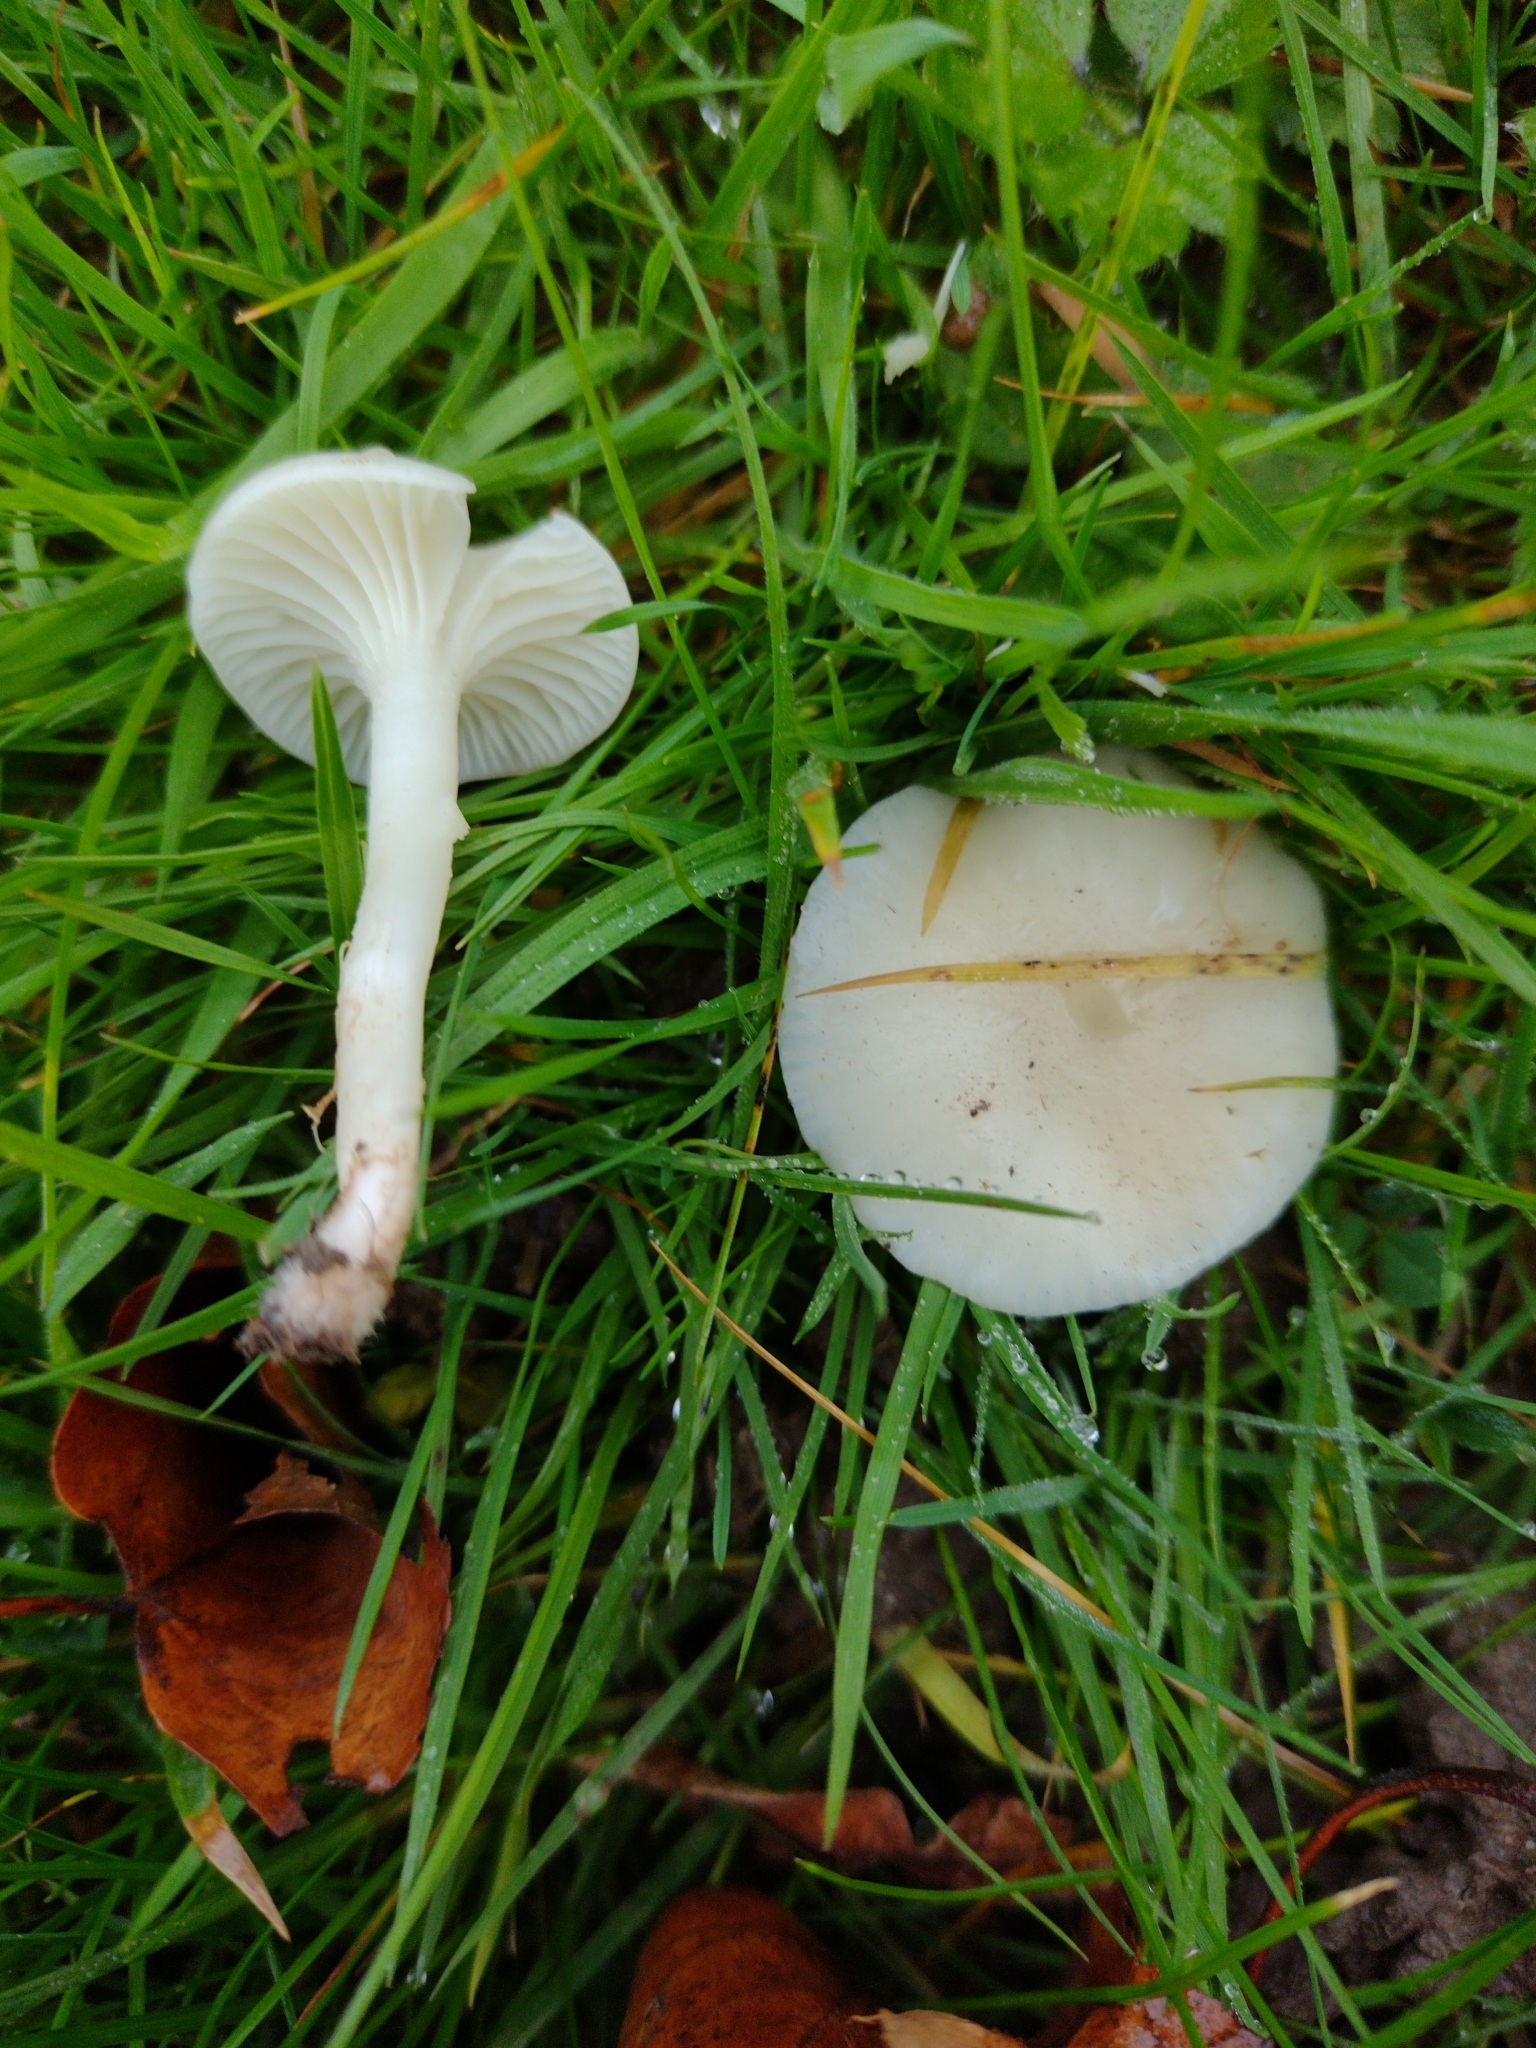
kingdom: Fungi
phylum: Basidiomycota
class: Agaricomycetes
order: Agaricales
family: Hygrophoraceae
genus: Cuphophyllus
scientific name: Cuphophyllus virgineus
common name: Snowy waxcap
